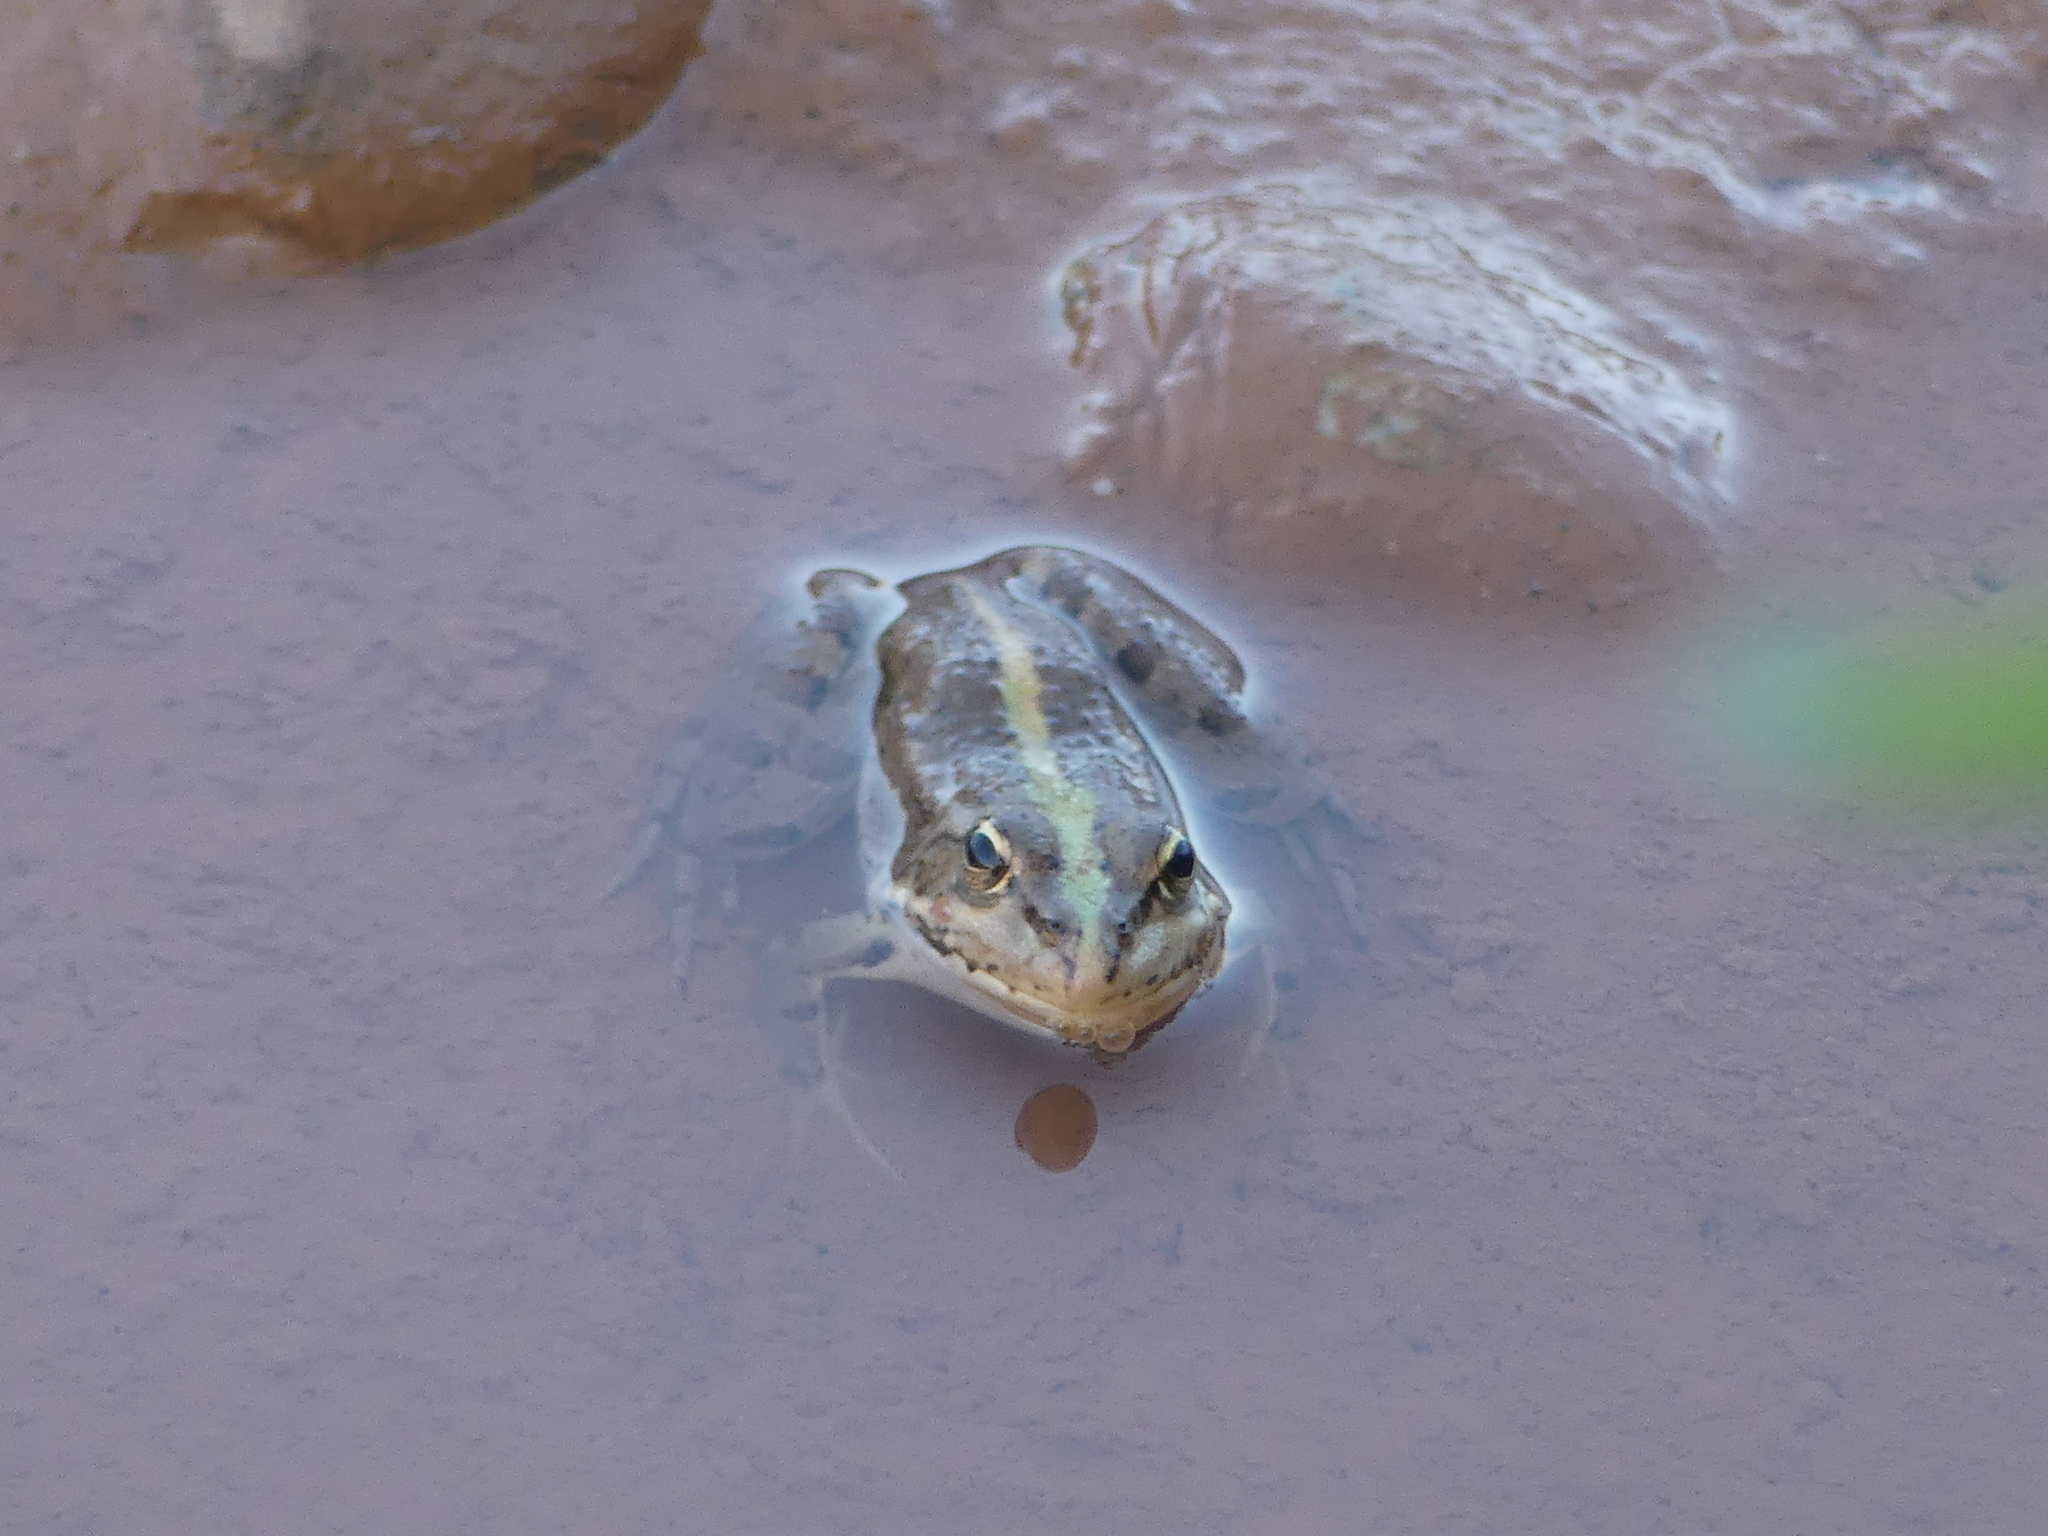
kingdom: Animalia
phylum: Chordata
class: Amphibia
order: Anura
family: Ranidae
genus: Pelophylax
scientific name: Pelophylax saharicus
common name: Sahara frog
